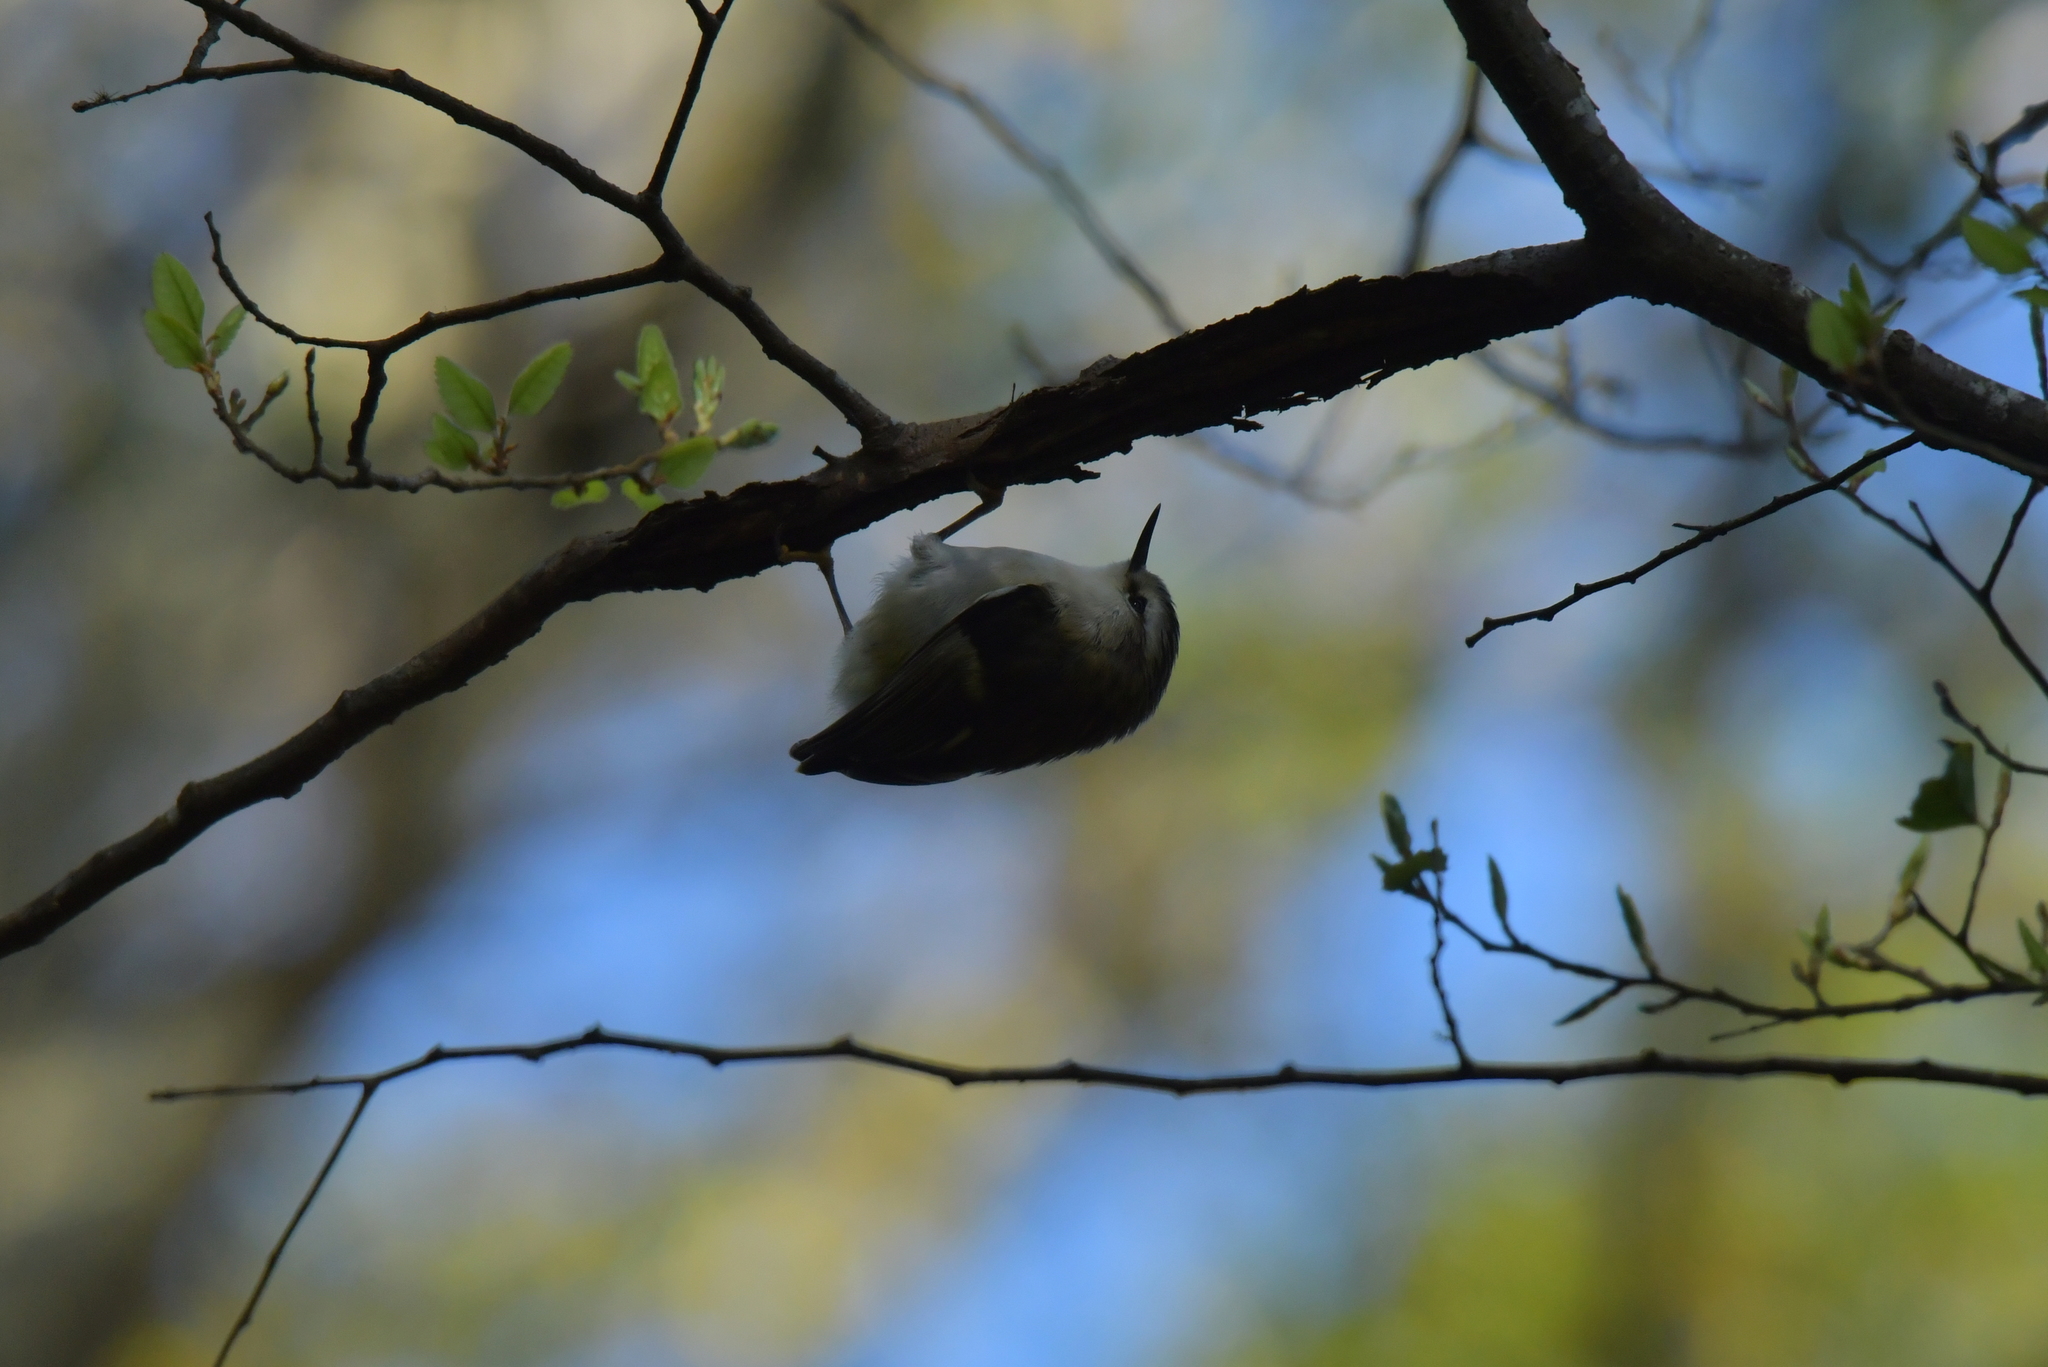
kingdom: Animalia
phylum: Chordata
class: Aves
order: Passeriformes
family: Acanthisittidae
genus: Acanthisitta
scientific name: Acanthisitta chloris
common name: Rifleman
